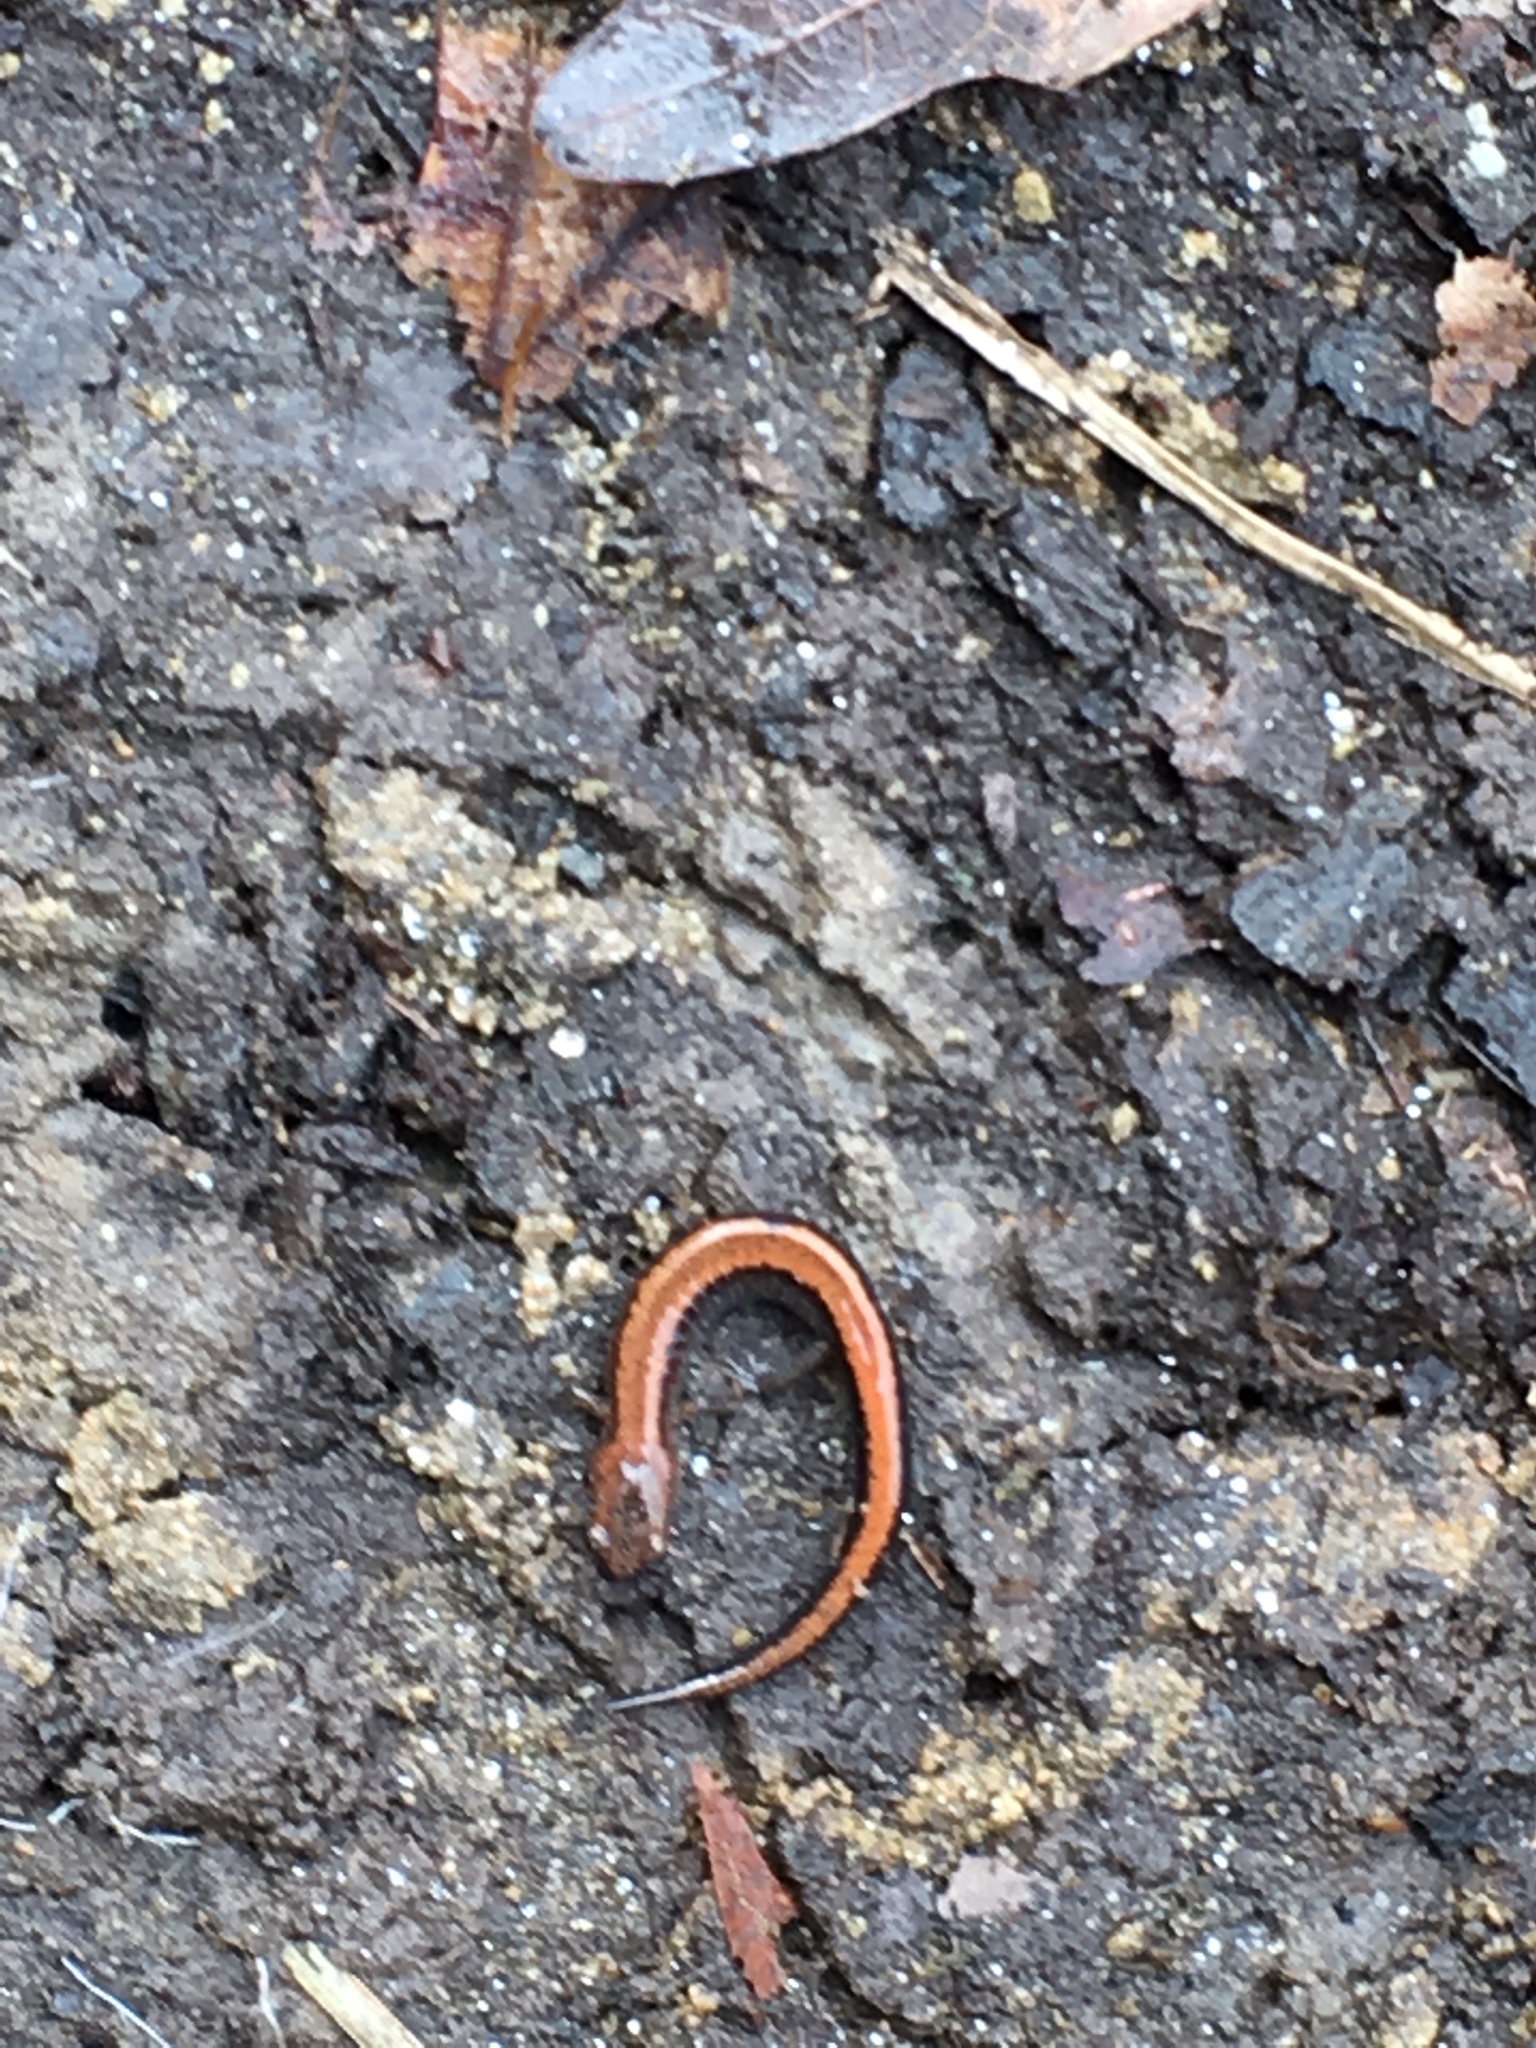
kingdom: Animalia
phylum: Chordata
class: Amphibia
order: Caudata
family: Plethodontidae
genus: Plethodon
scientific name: Plethodon cinereus
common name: Redback salamander
